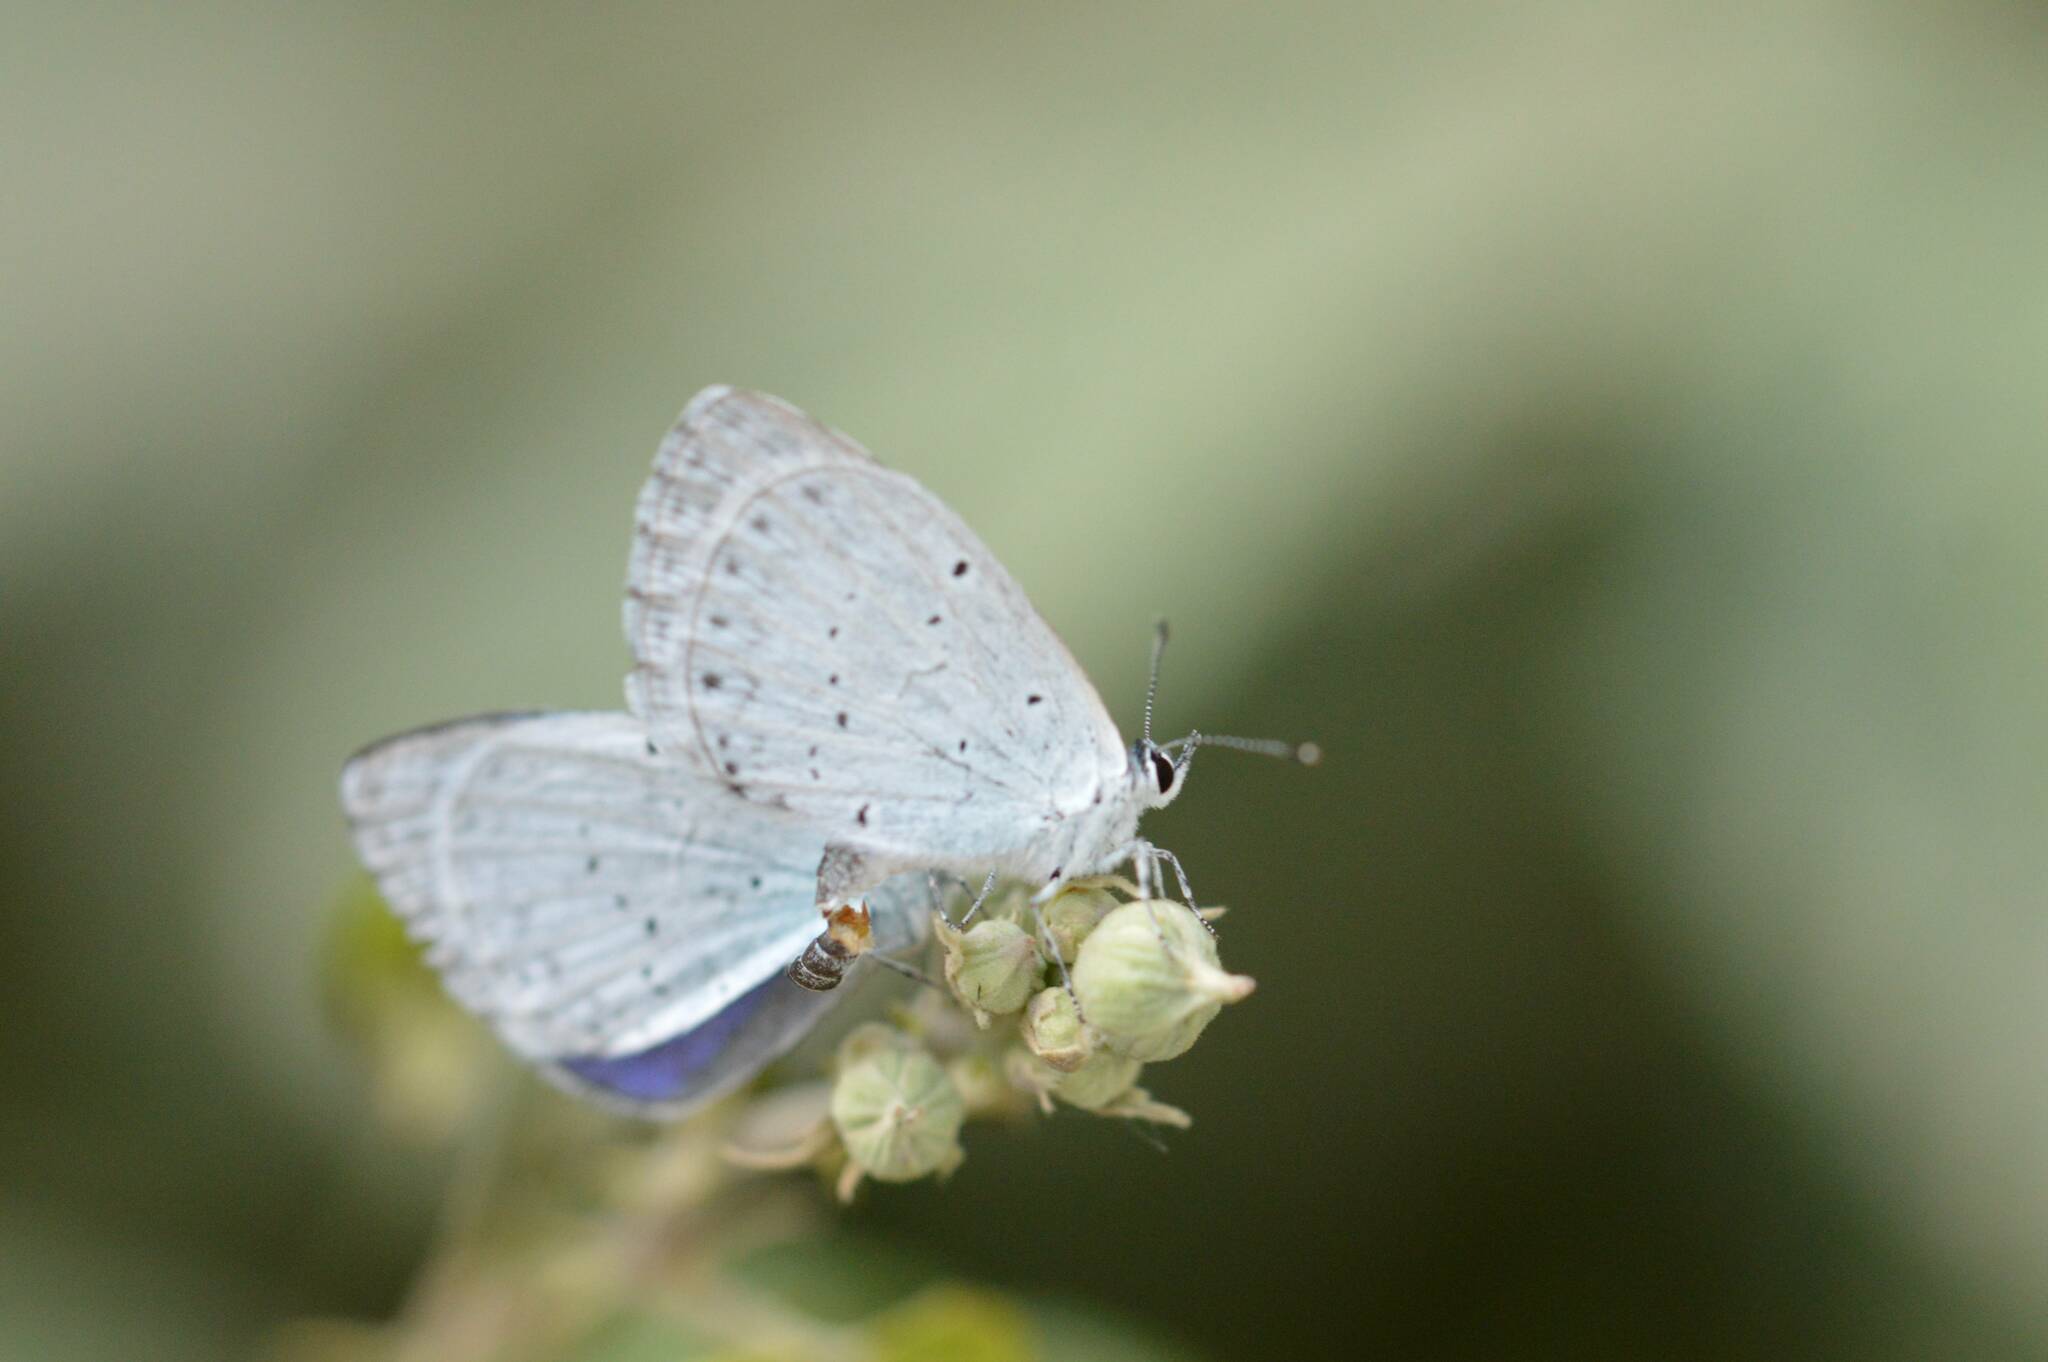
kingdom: Animalia
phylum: Arthropoda
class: Insecta
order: Lepidoptera
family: Lycaenidae
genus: Celastrina
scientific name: Celastrina argiolus
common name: Holly blue
